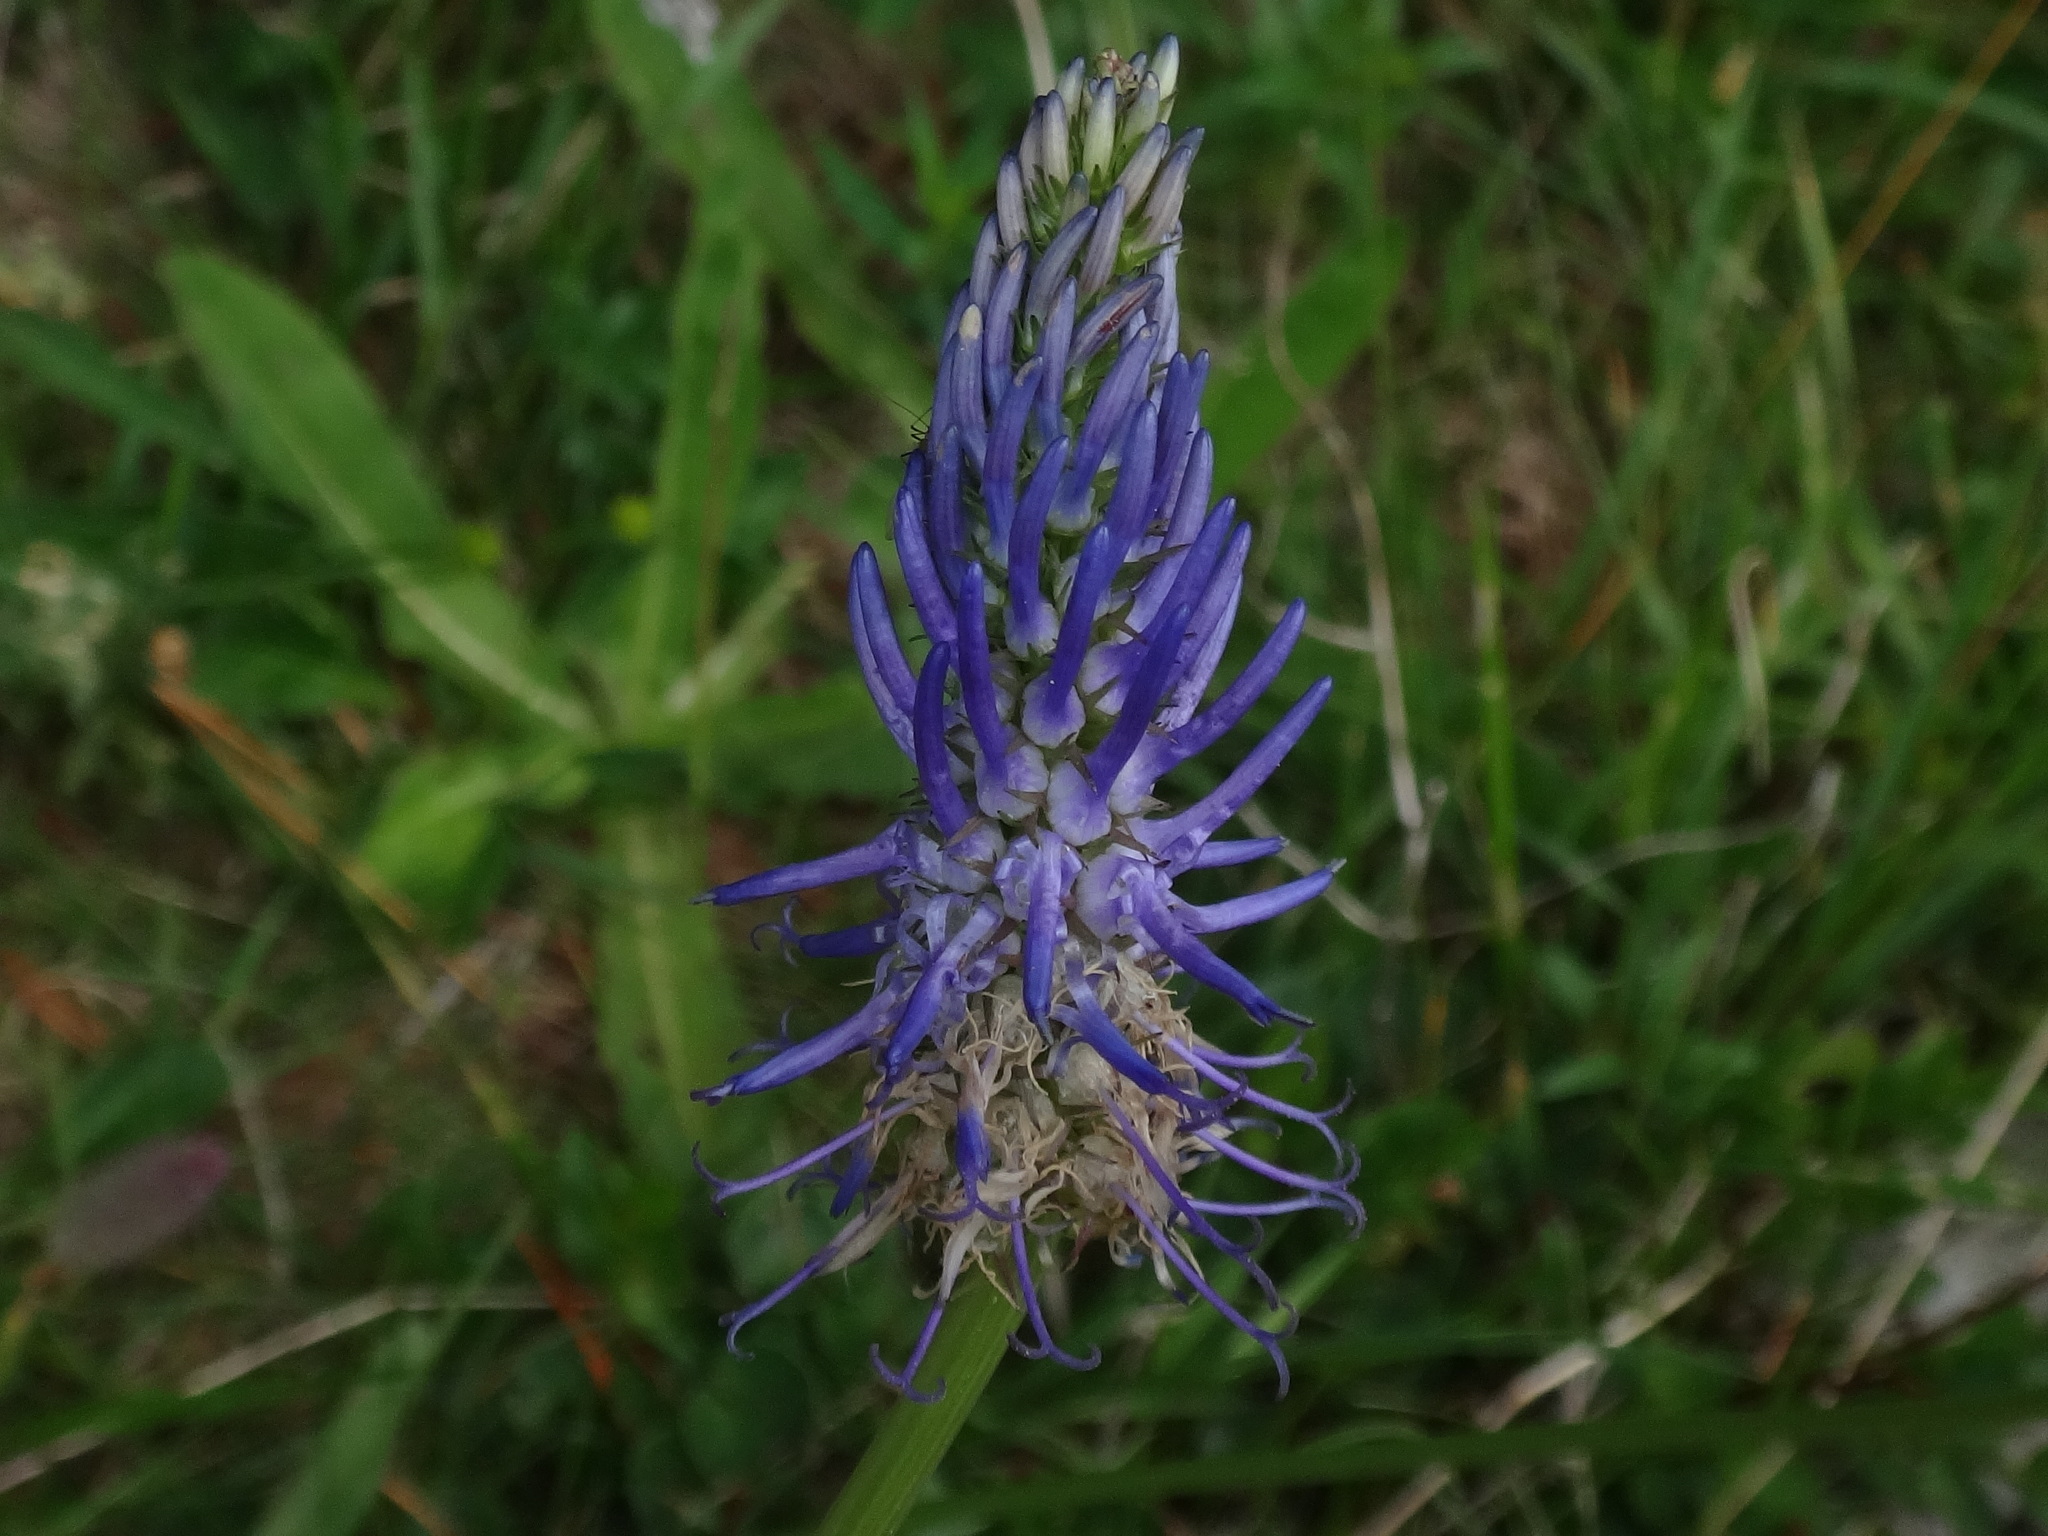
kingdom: Plantae
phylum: Tracheophyta
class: Magnoliopsida
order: Asterales
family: Campanulaceae
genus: Phyteuma
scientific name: Phyteuma persicifolium
